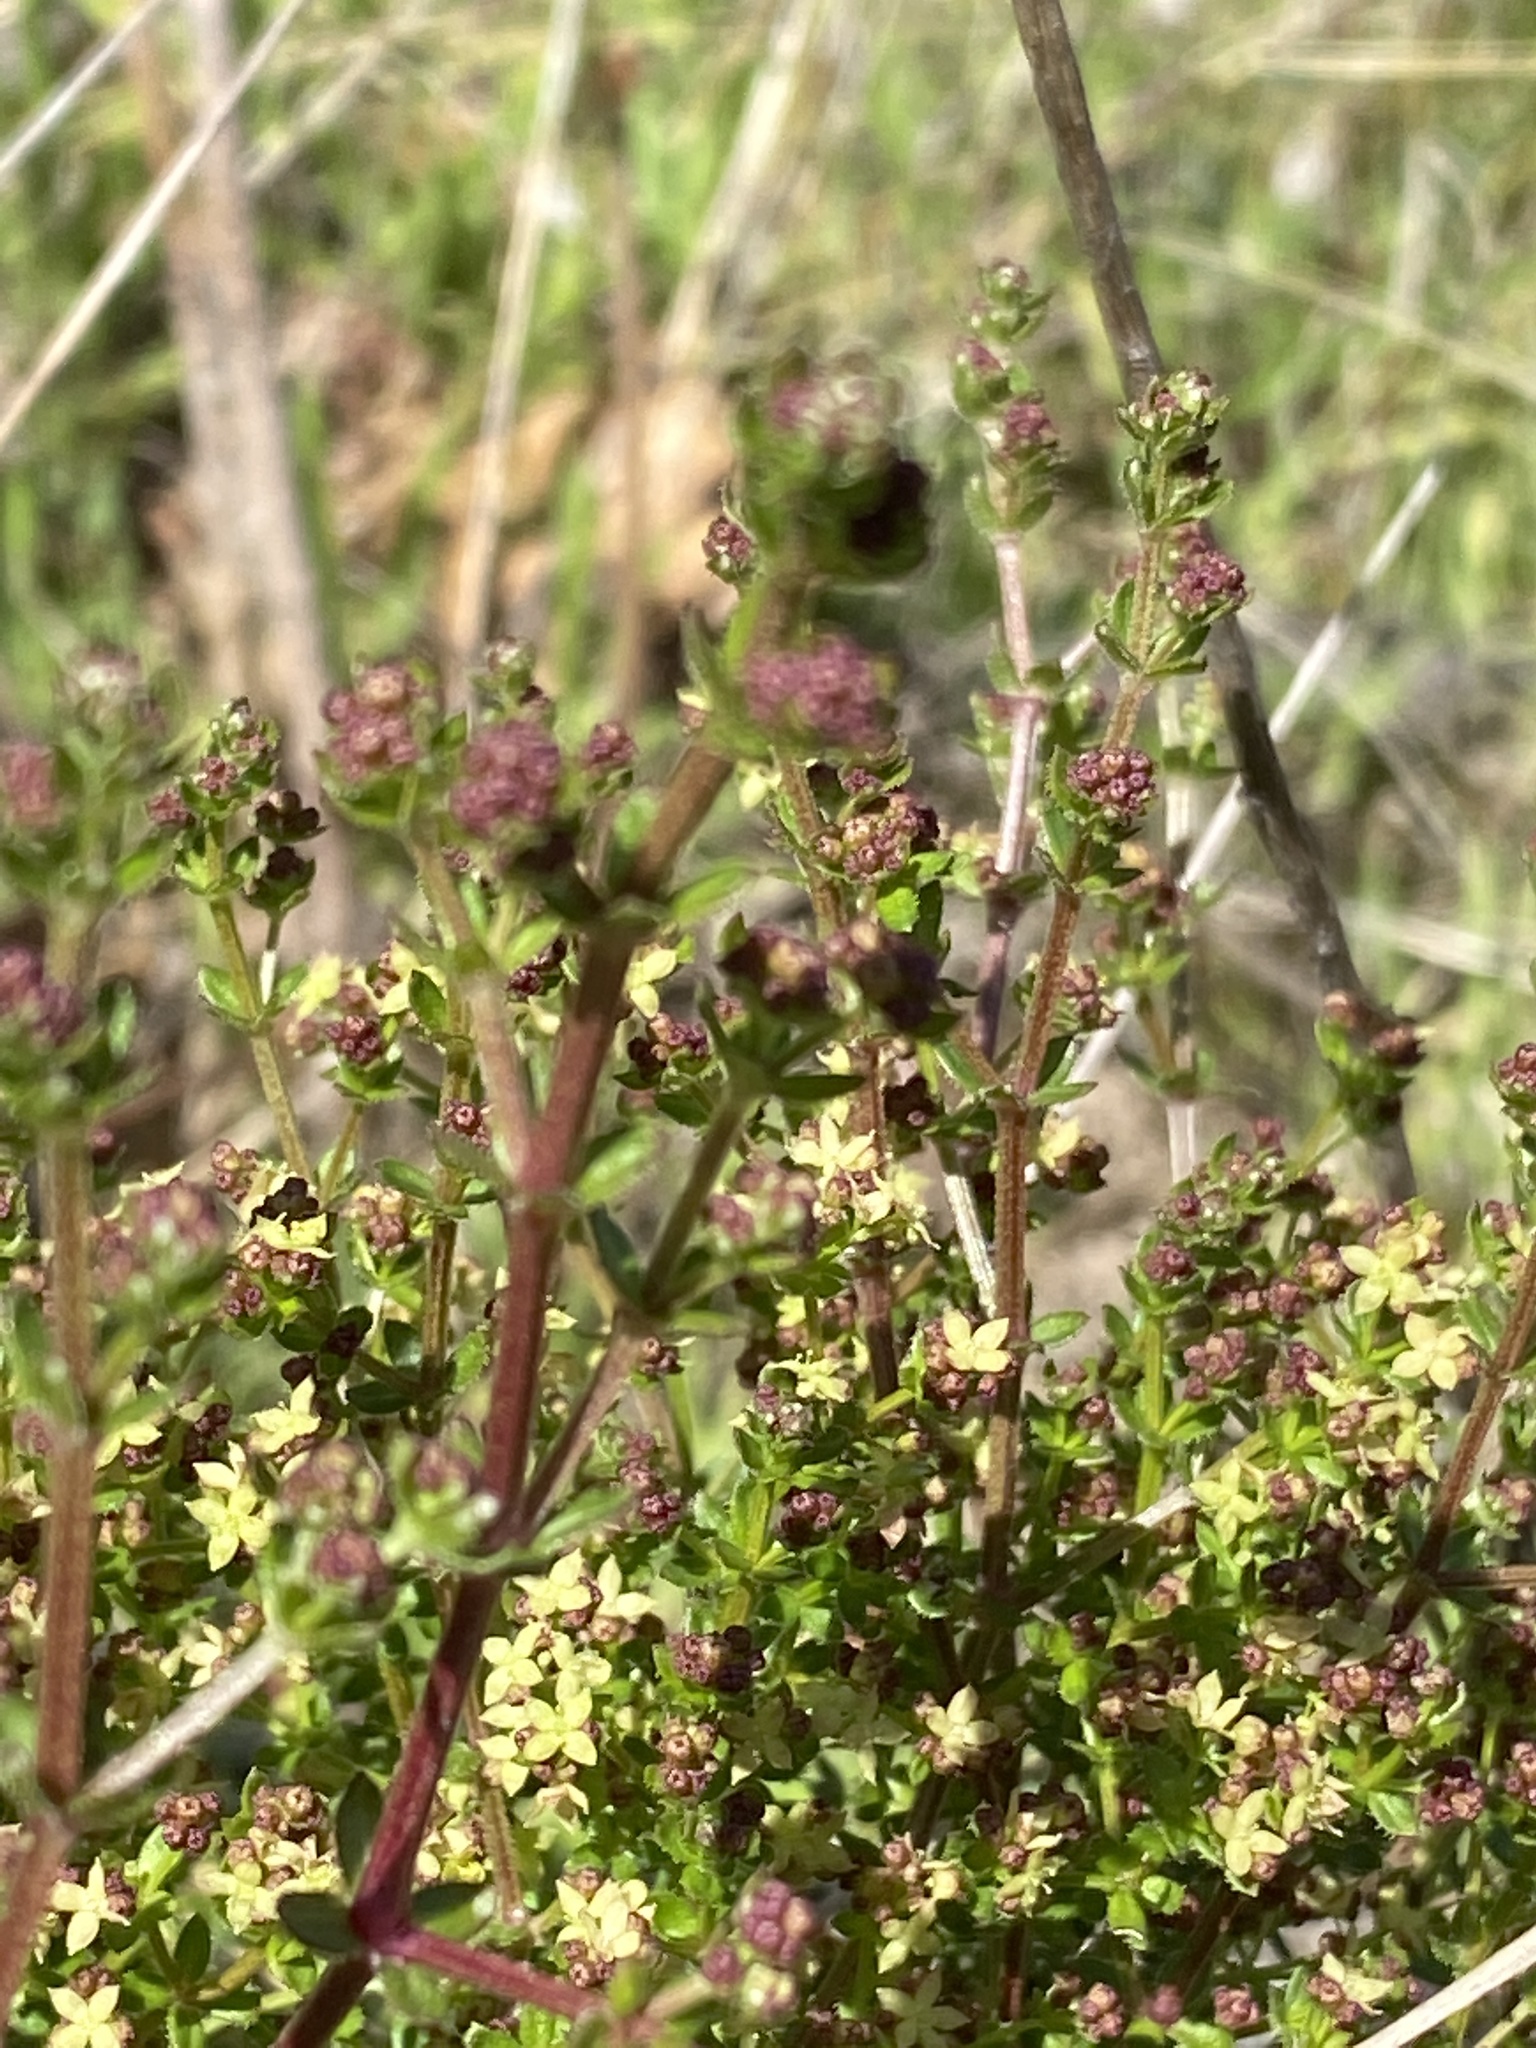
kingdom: Plantae
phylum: Tracheophyta
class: Magnoliopsida
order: Gentianales
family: Rubiaceae
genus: Galium
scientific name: Galium porrigens
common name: Climbing bedstraw
